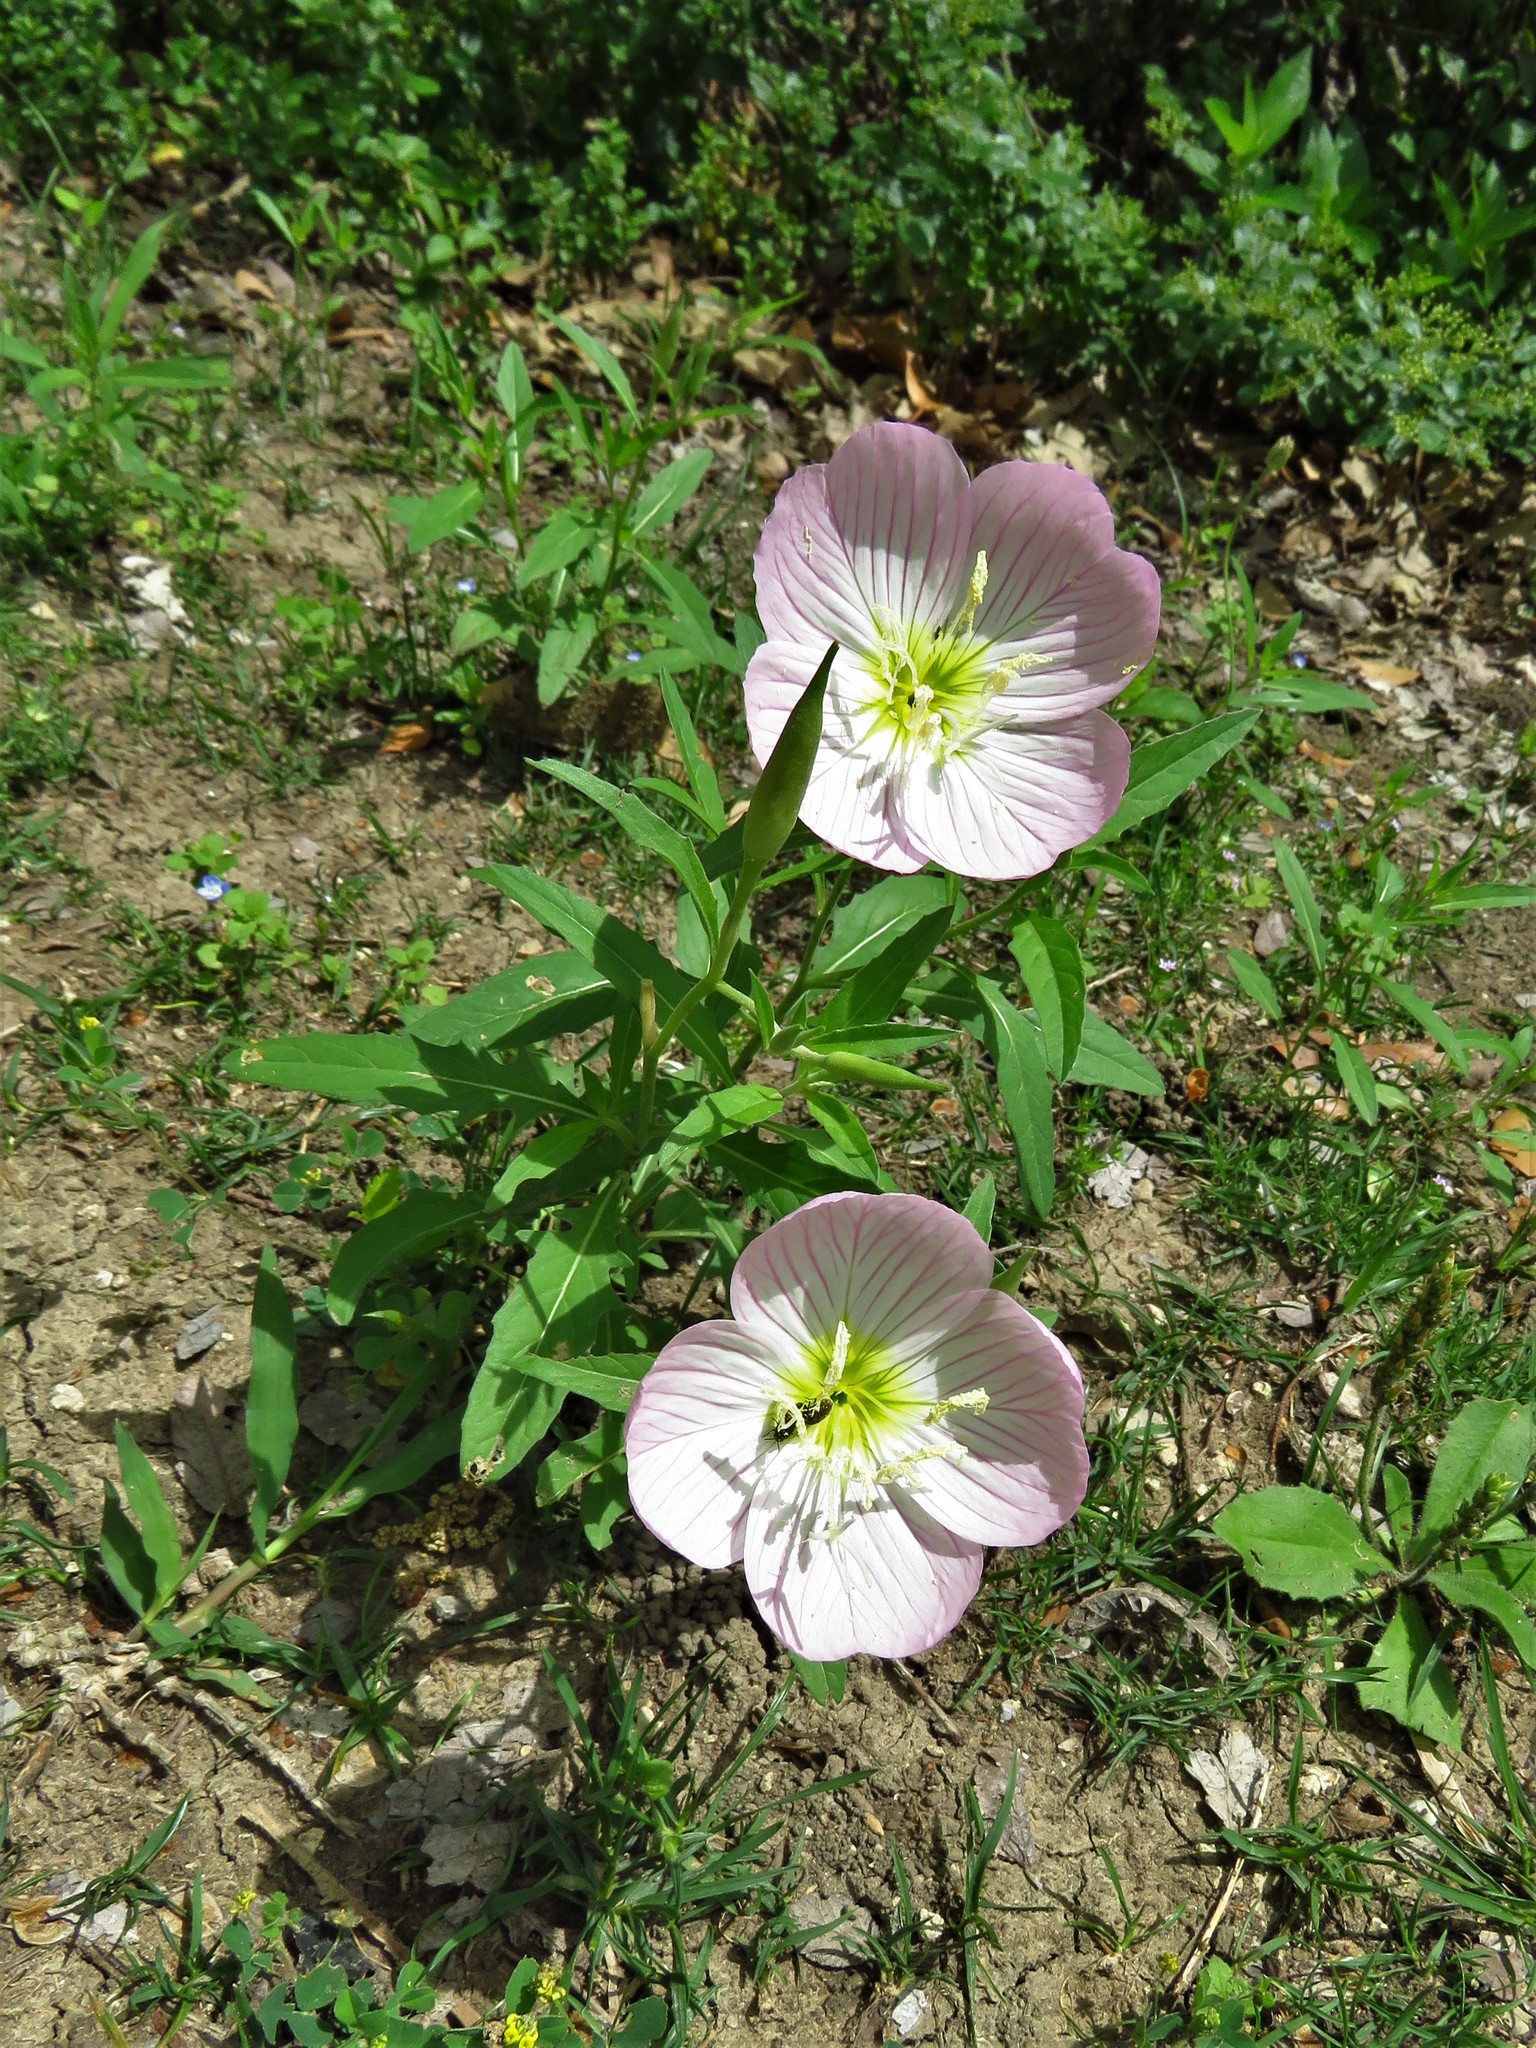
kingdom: Plantae
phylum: Tracheophyta
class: Magnoliopsida
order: Myrtales
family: Onagraceae
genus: Oenothera
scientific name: Oenothera speciosa
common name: White evening-primrose
